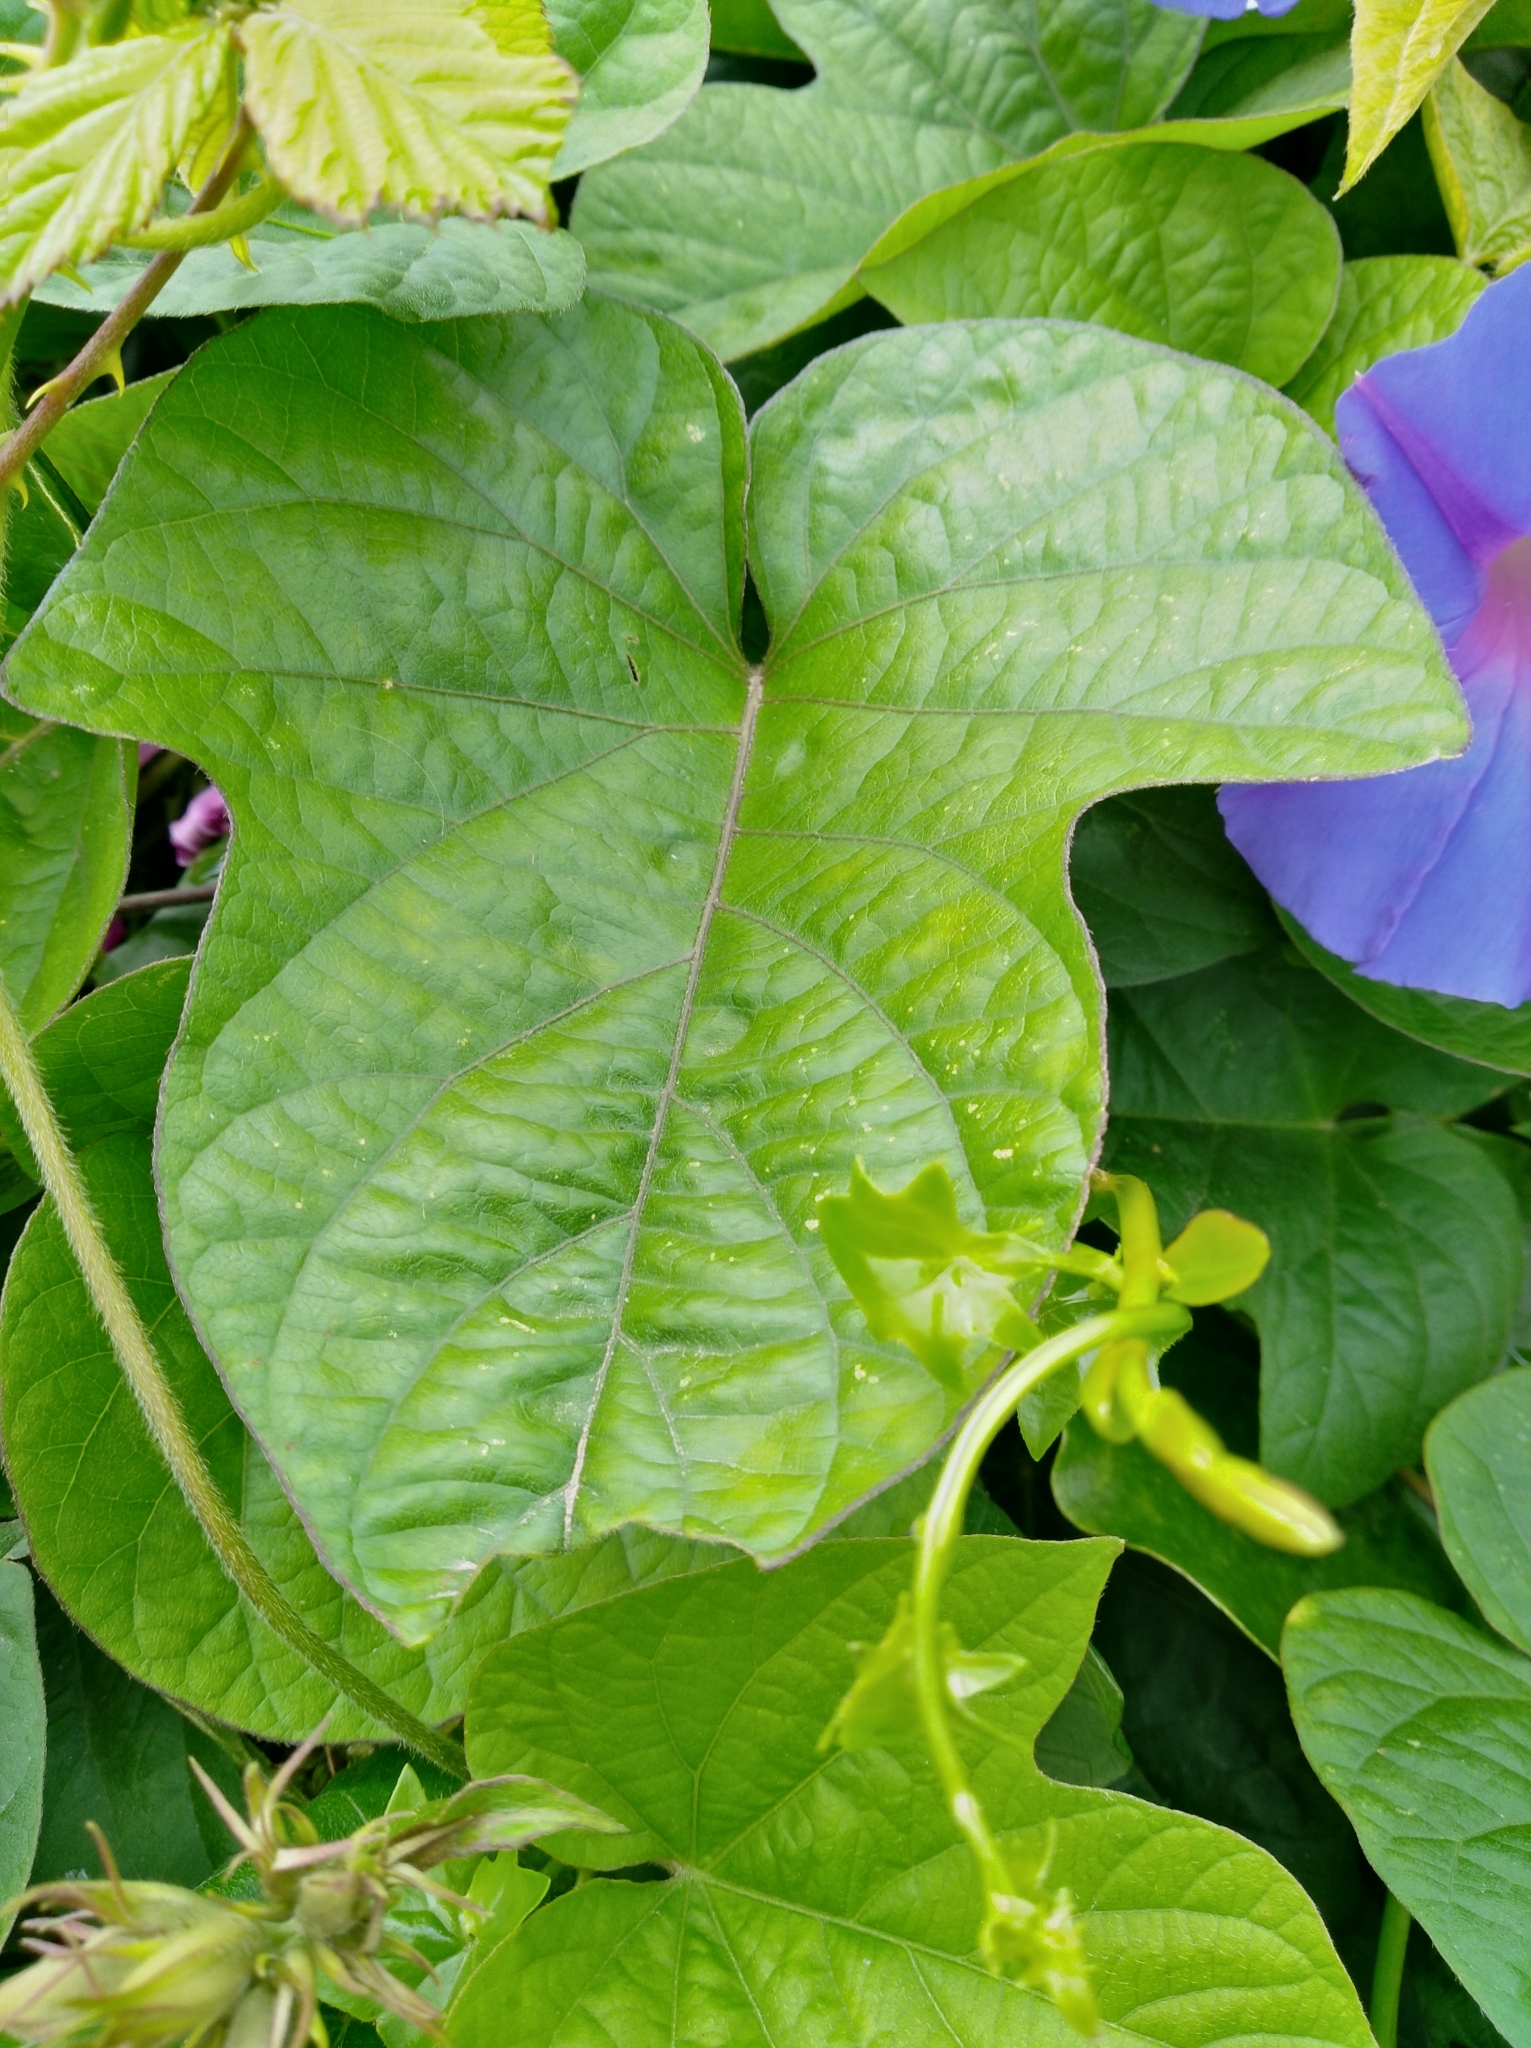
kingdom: Plantae
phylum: Tracheophyta
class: Magnoliopsida
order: Solanales
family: Convolvulaceae
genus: Ipomoea
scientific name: Ipomoea indica
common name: Blue dawnflower
